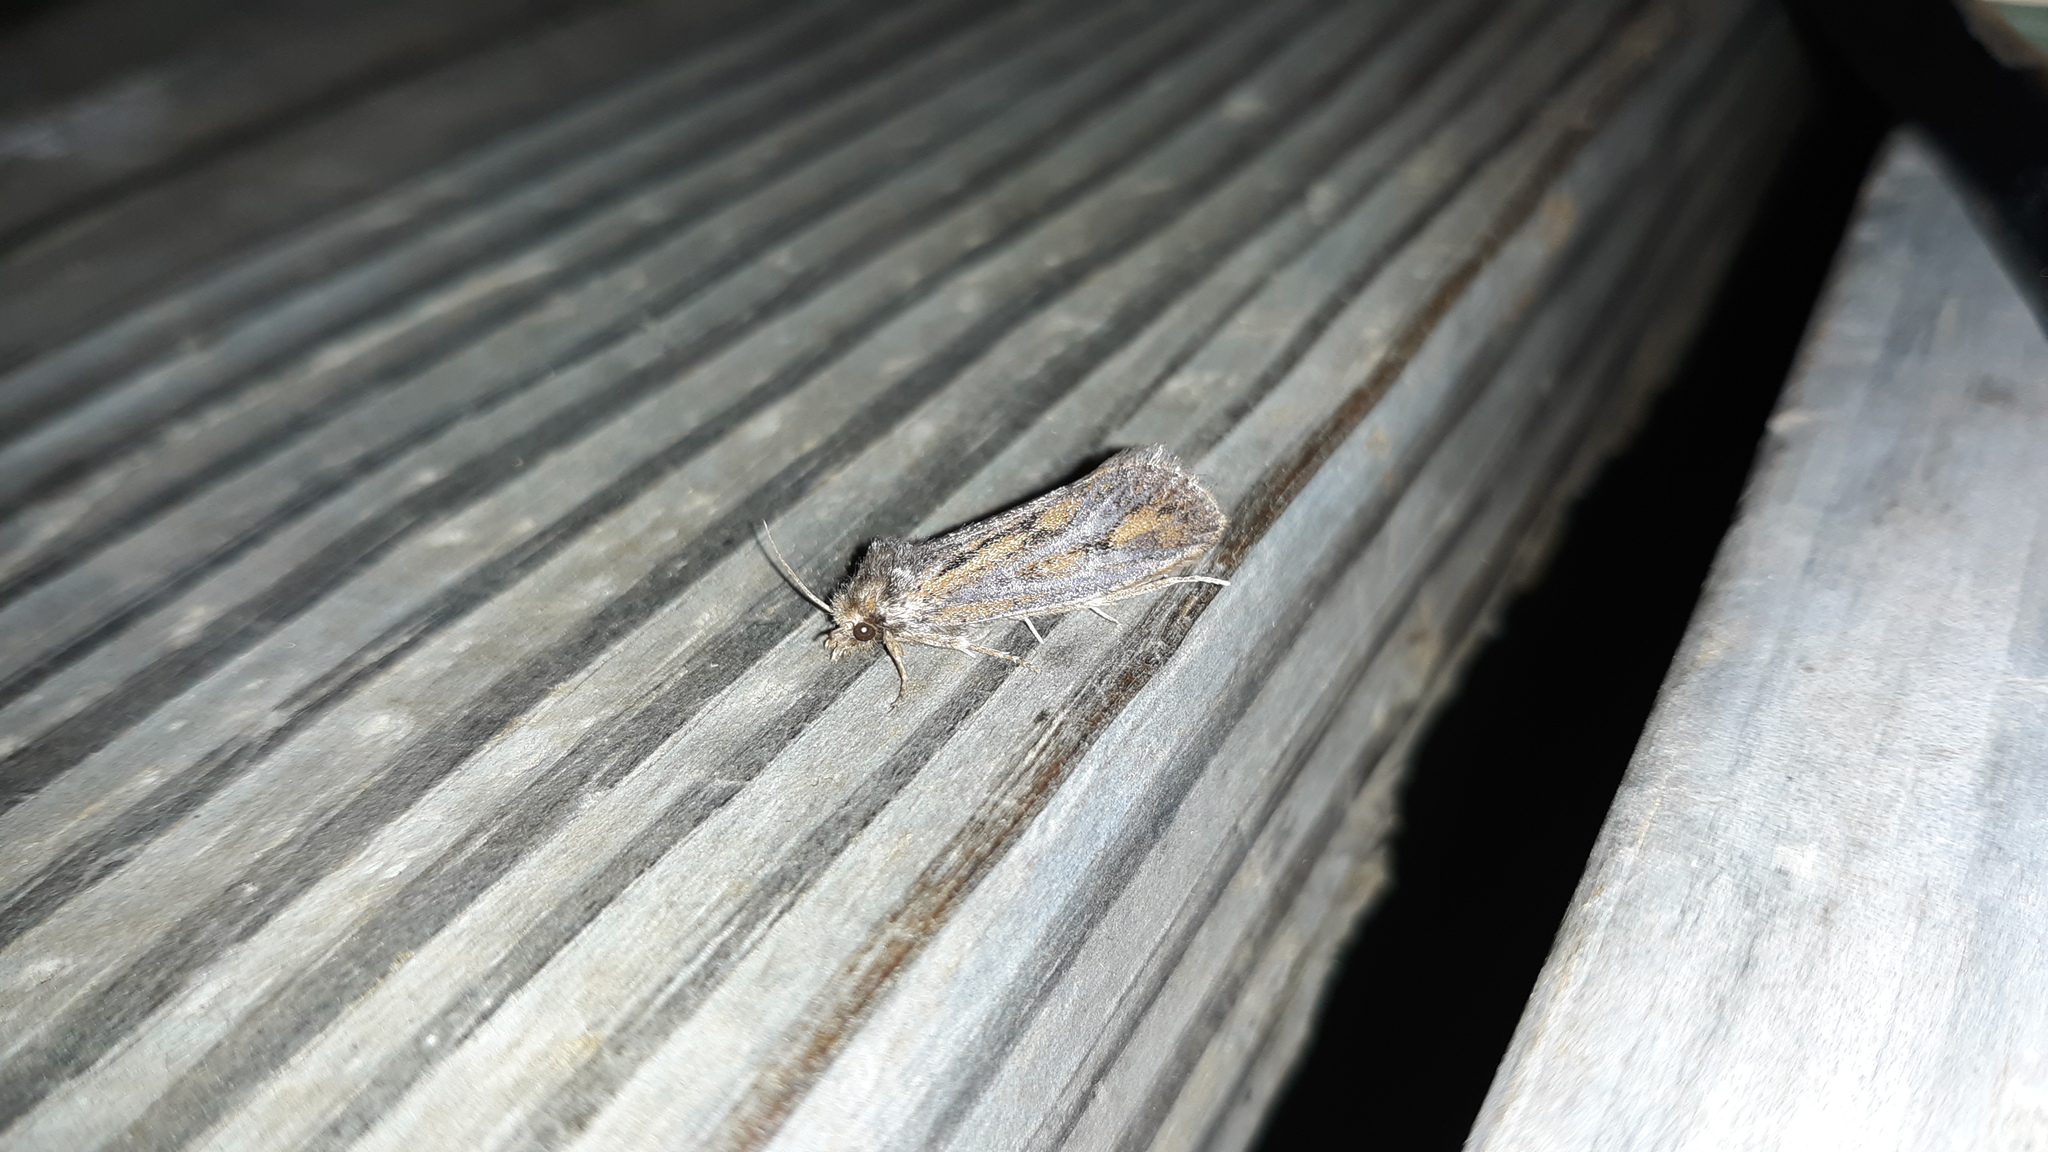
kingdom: Animalia
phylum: Arthropoda
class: Insecta
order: Lepidoptera
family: Tineidae
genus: Acrolophus
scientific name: Acrolophus popeanella
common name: Clemens' grass tubeworm moth
